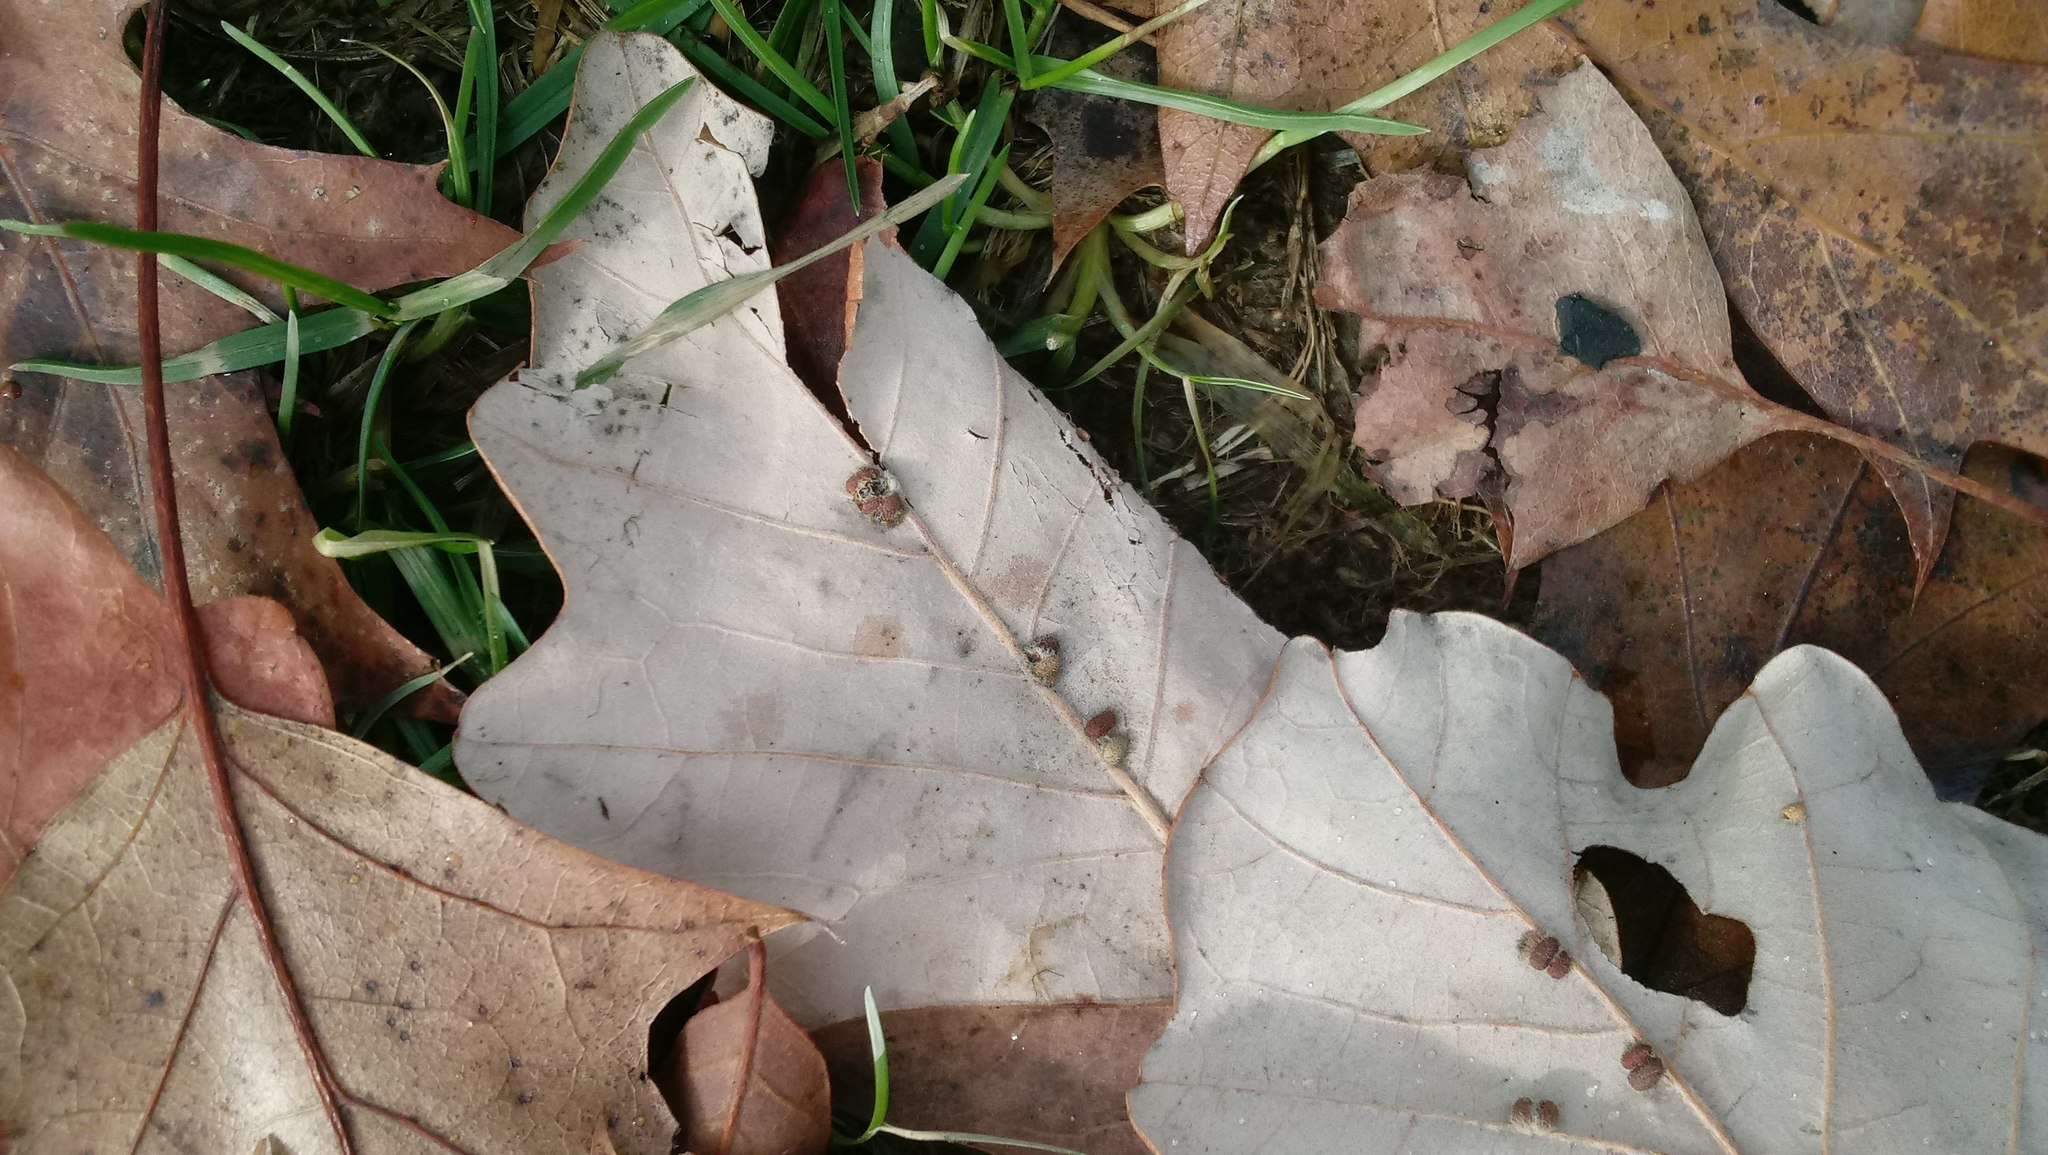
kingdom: Animalia
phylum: Arthropoda
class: Insecta
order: Hymenoptera
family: Cynipidae
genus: Andricus
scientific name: Andricus Druon ignotum
